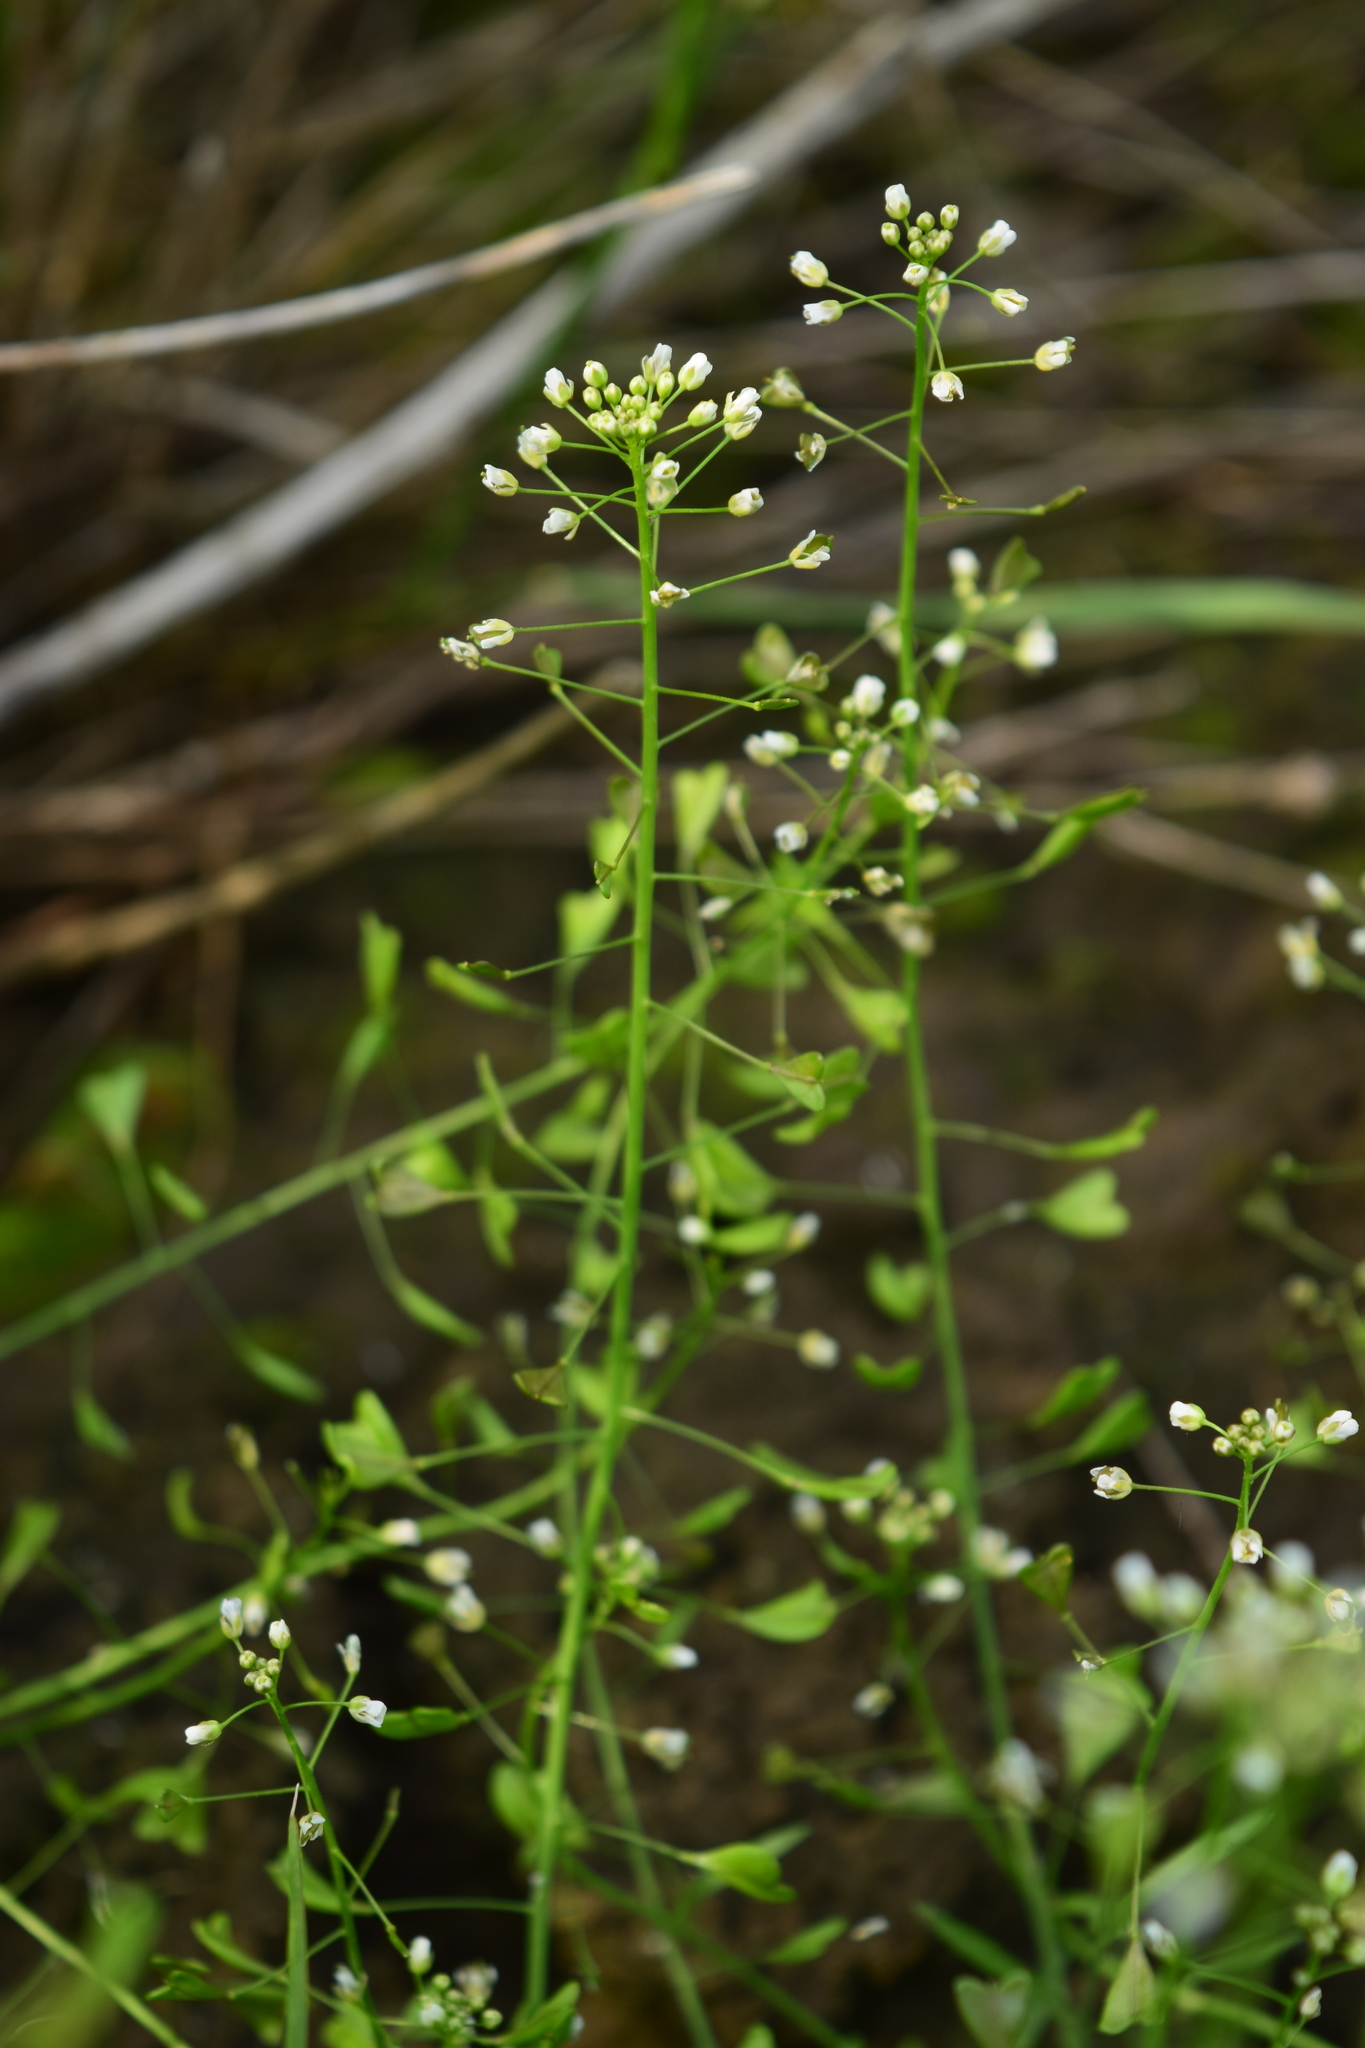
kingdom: Plantae
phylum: Tracheophyta
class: Magnoliopsida
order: Brassicales
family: Brassicaceae
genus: Capsella
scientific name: Capsella bursa-pastoris
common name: Shepherd's purse
